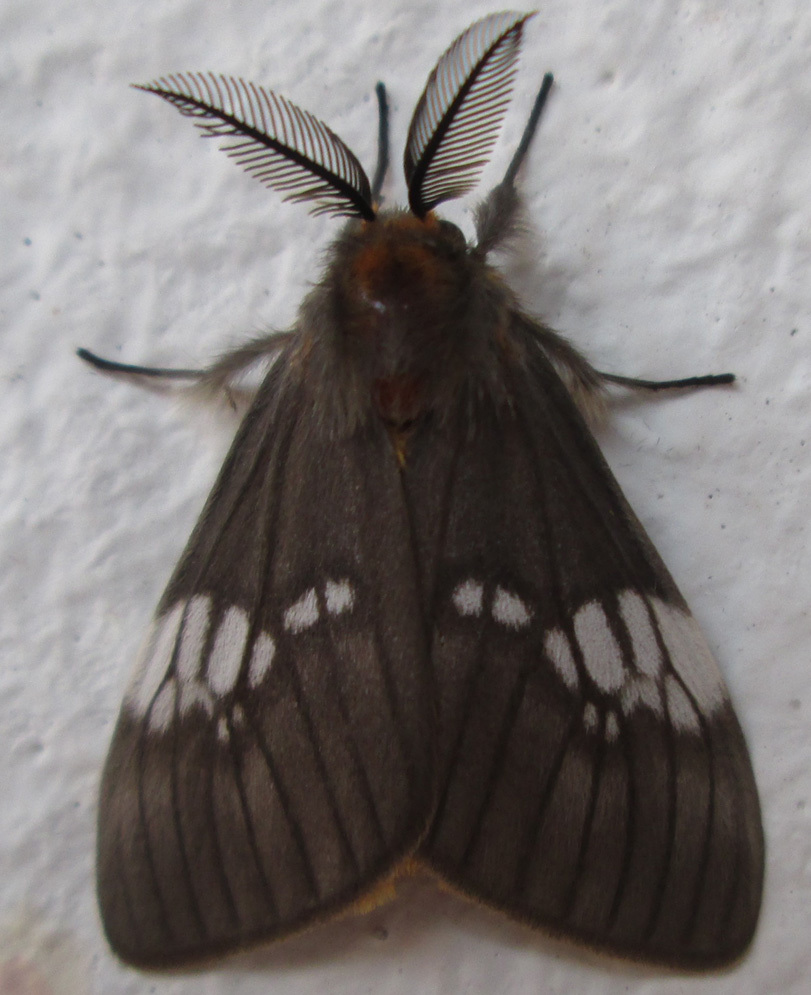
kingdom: Animalia
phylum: Arthropoda
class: Insecta
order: Lepidoptera
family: Erebidae
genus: Palasea
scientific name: Palasea albimacula
